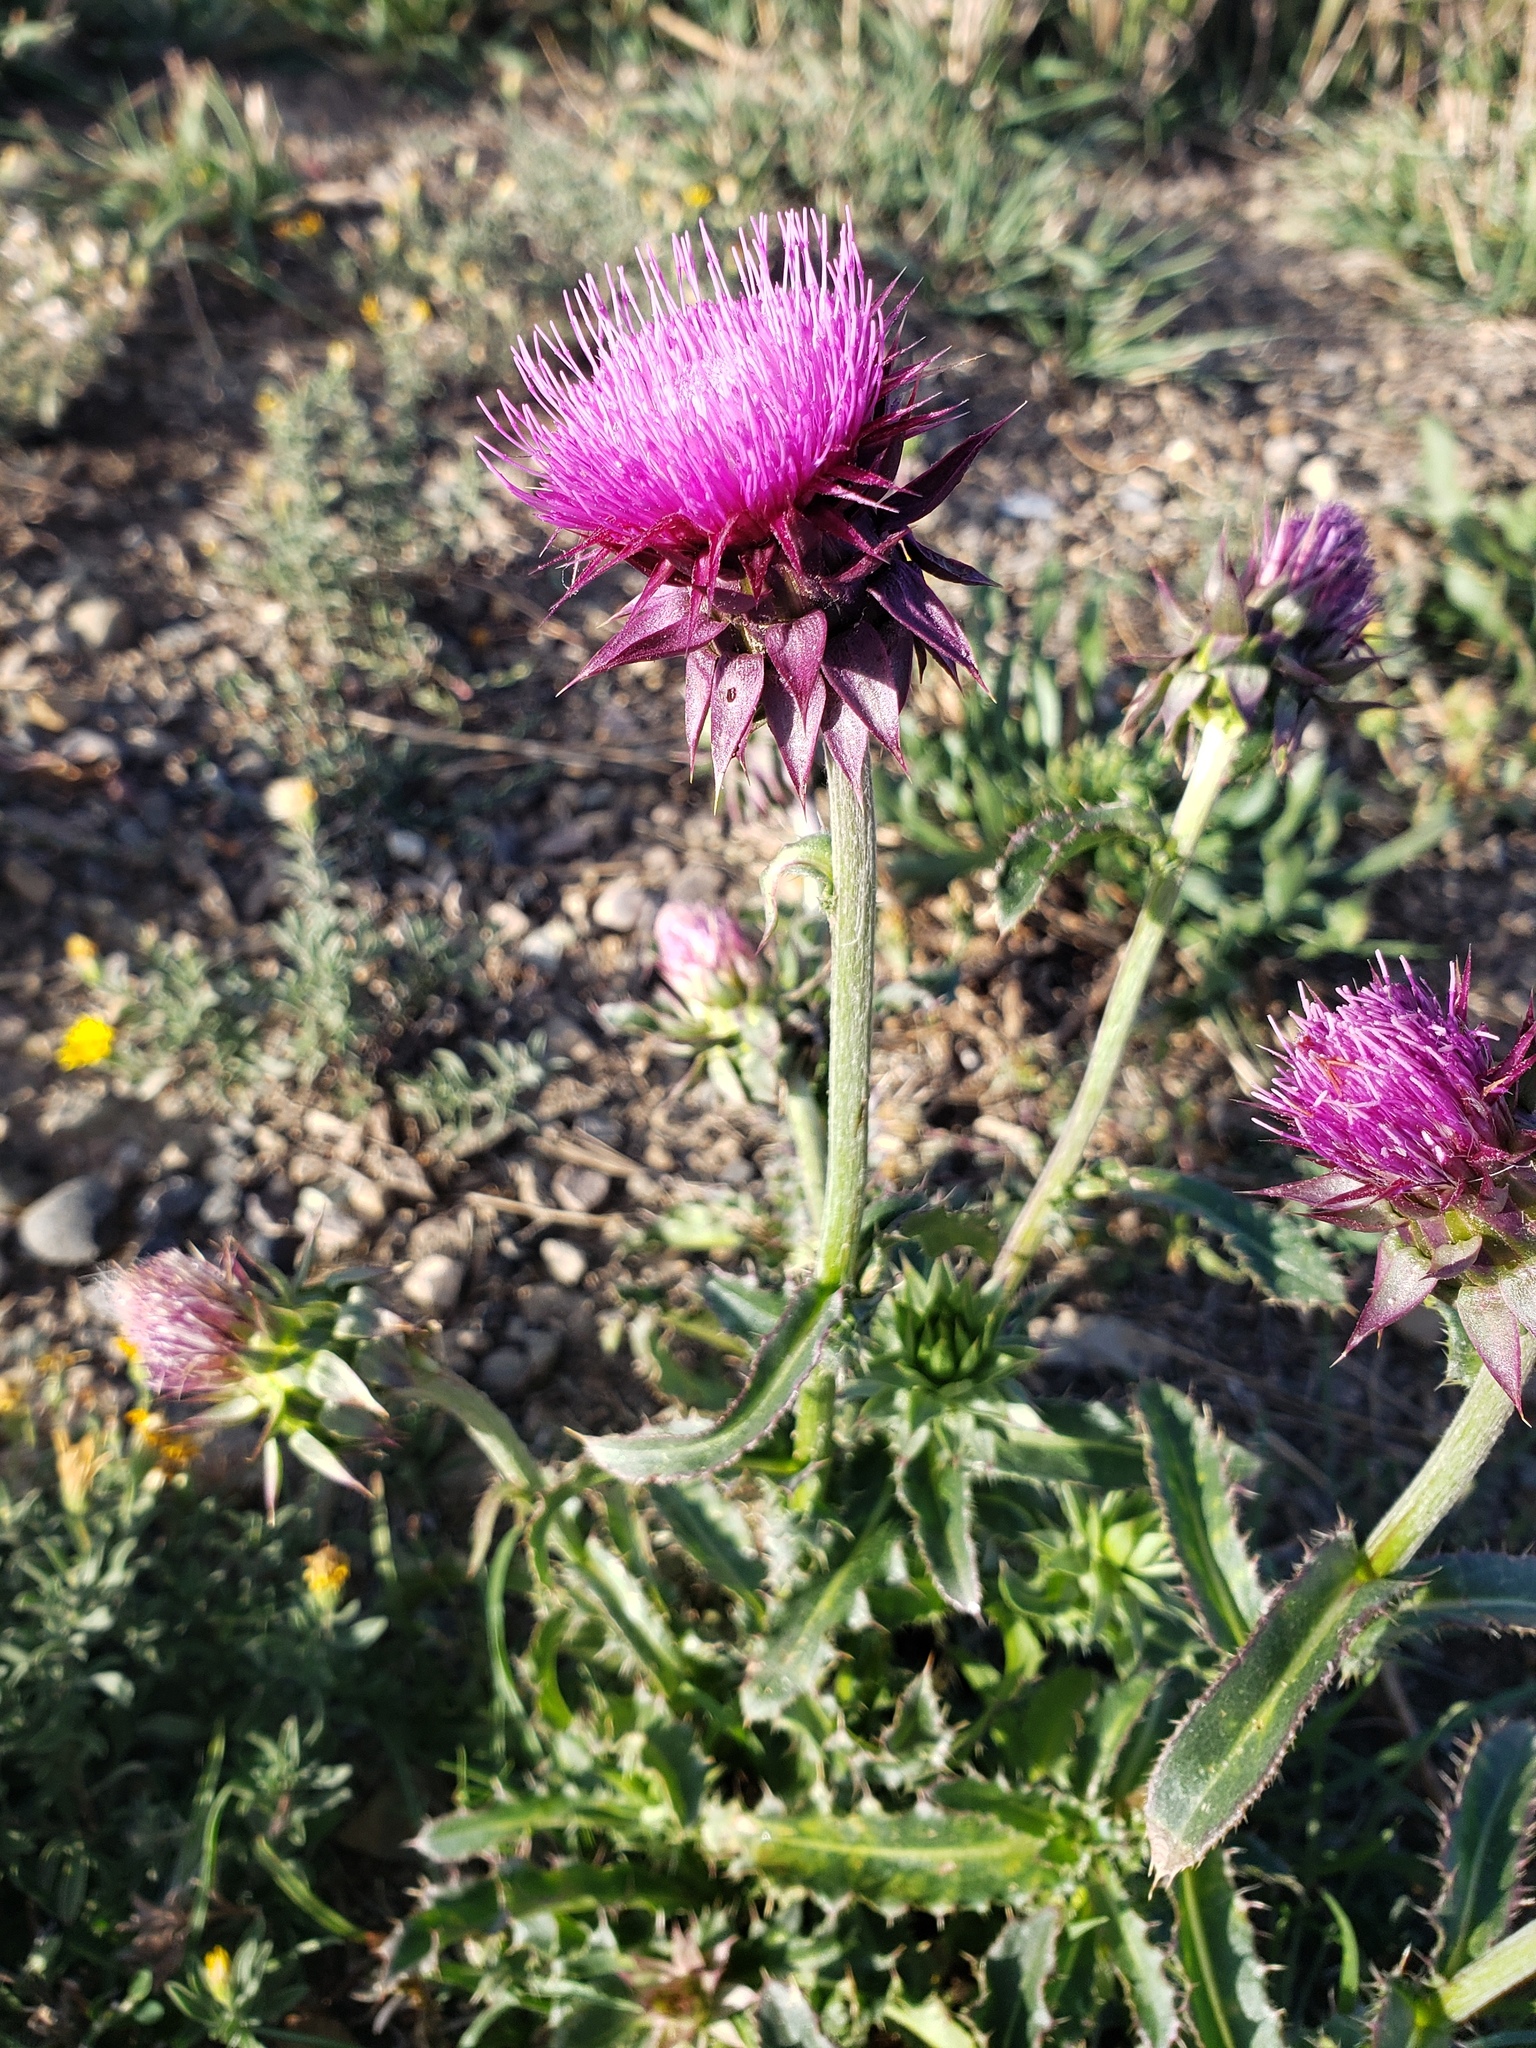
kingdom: Plantae
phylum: Tracheophyta
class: Magnoliopsida
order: Asterales
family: Asteraceae
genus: Carduus
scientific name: Carduus nutans
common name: Musk thistle
